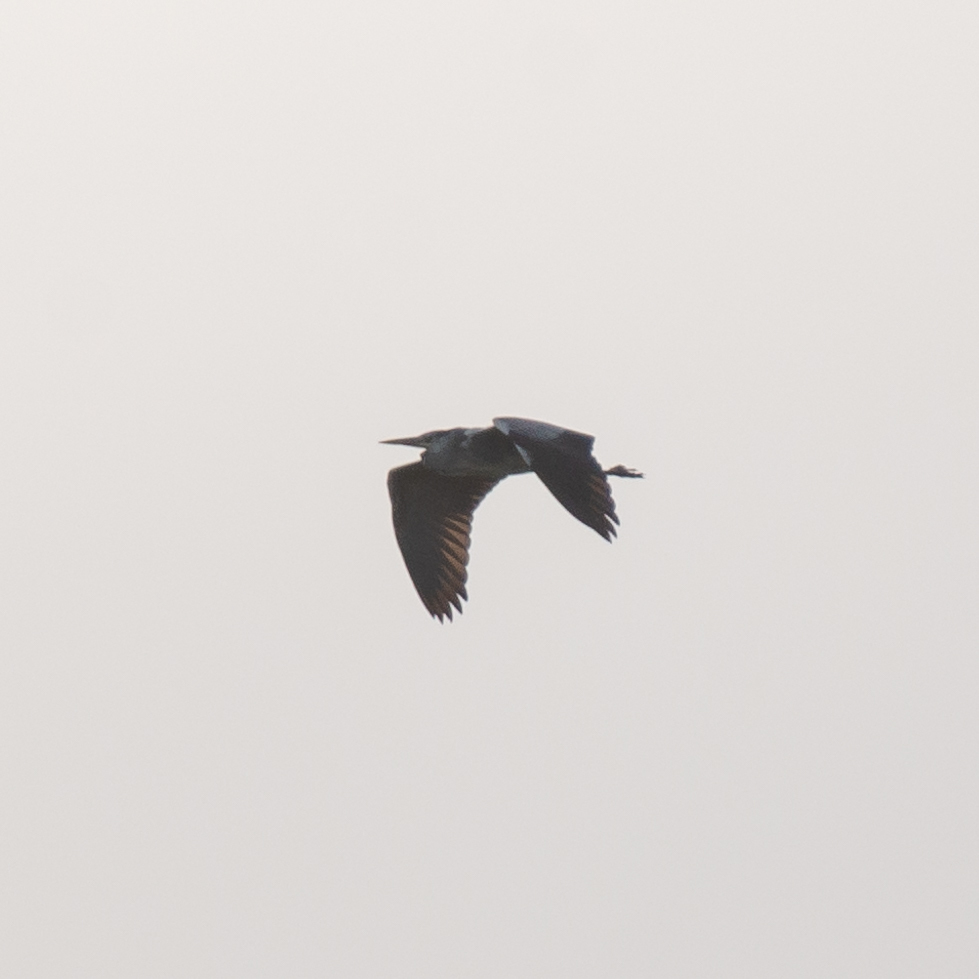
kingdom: Animalia
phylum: Chordata
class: Aves
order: Pelecaniformes
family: Ardeidae
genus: Ardea
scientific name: Ardea cinerea
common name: Grey heron
